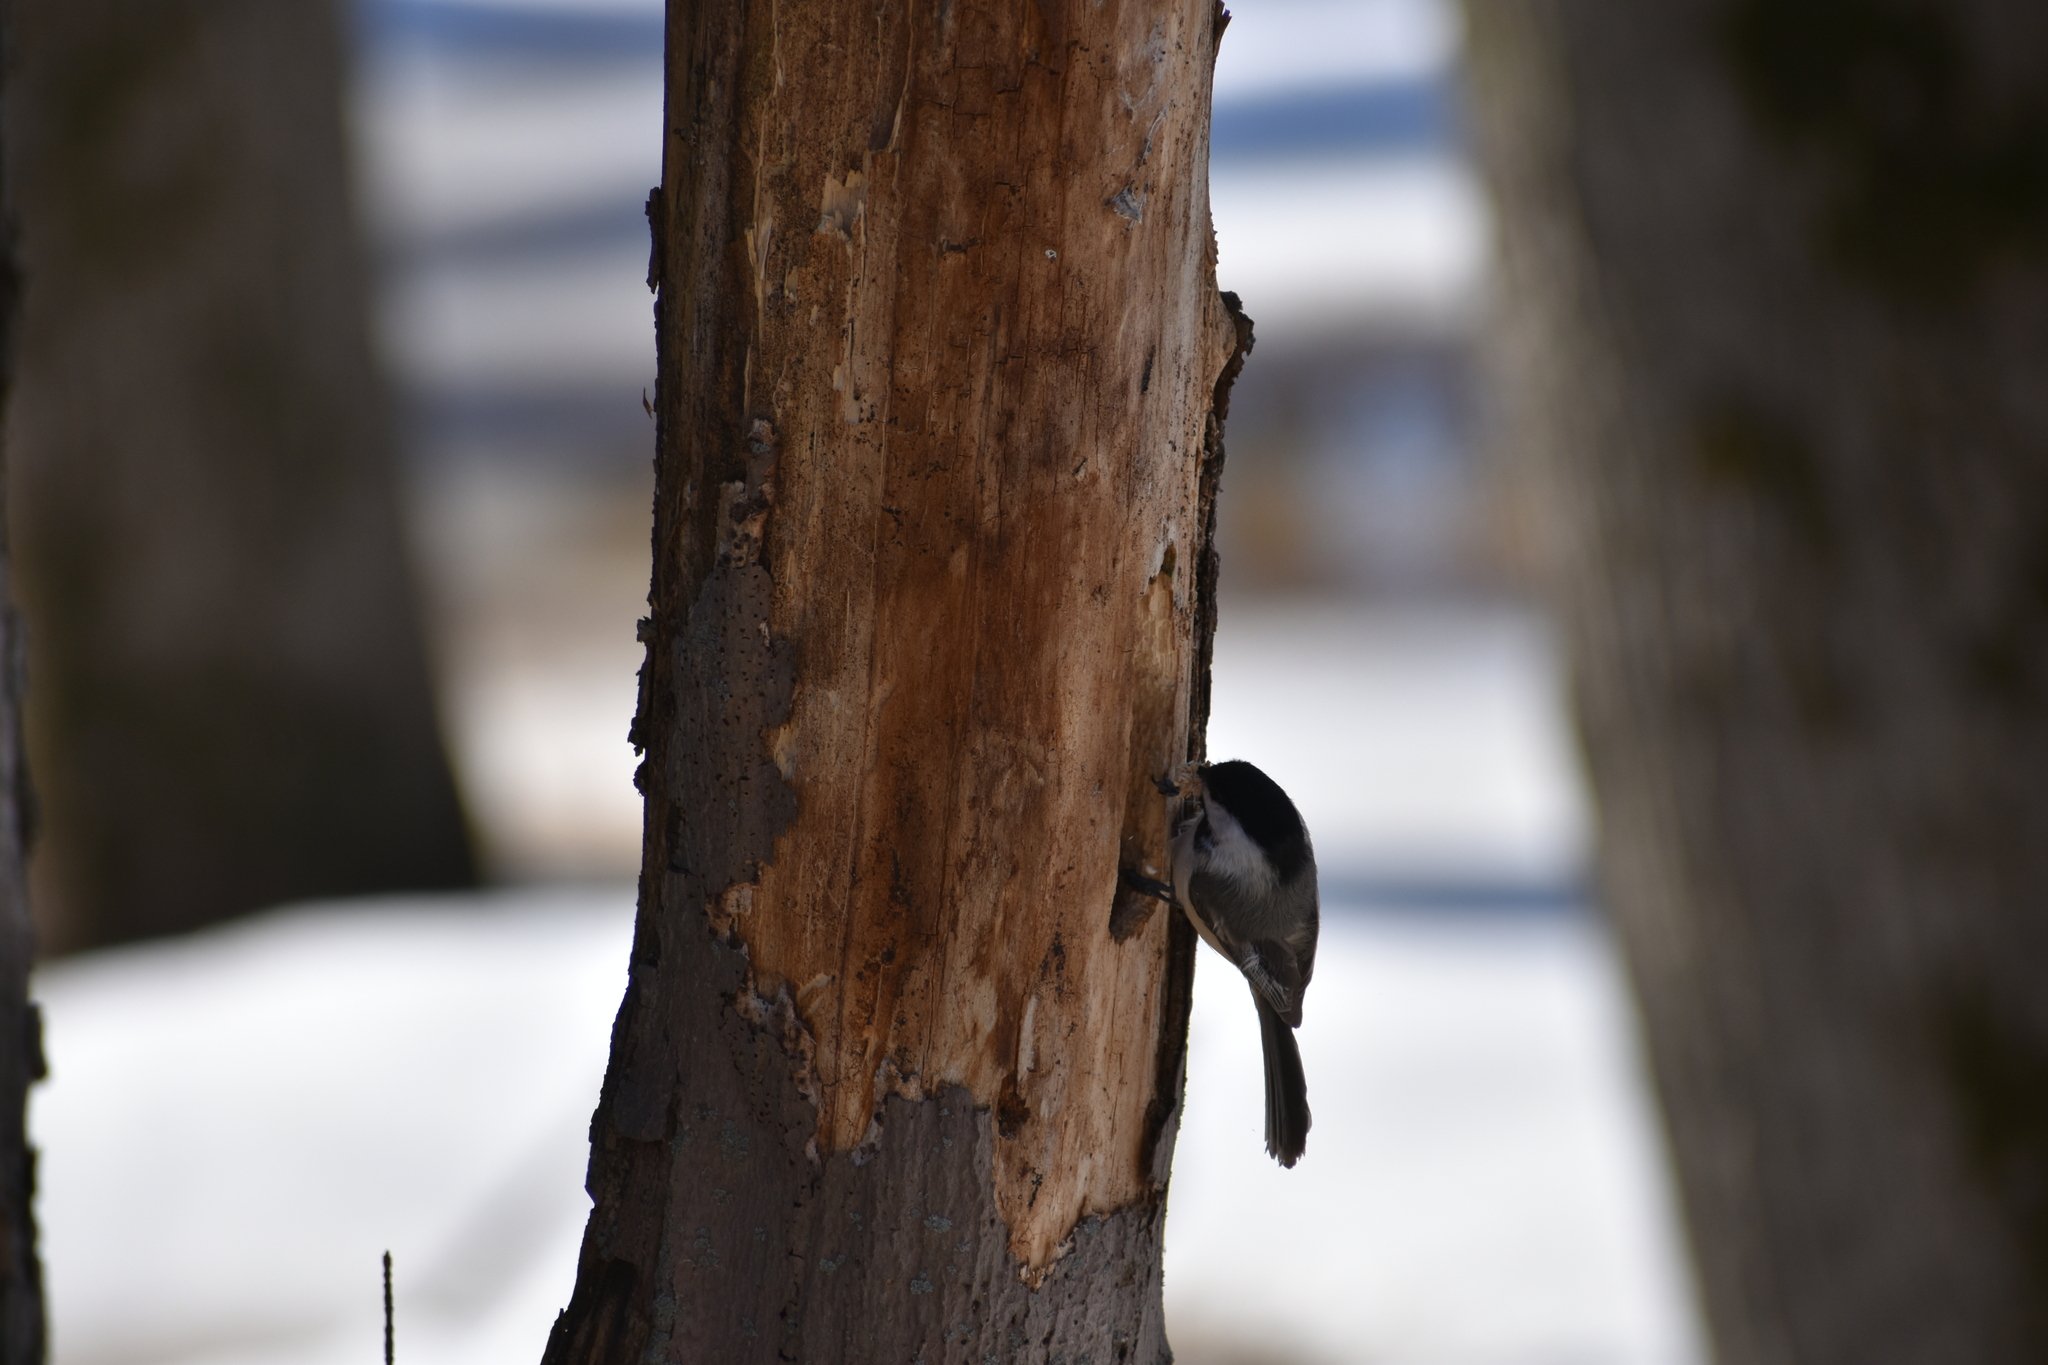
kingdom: Animalia
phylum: Chordata
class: Aves
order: Passeriformes
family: Paridae
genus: Poecile
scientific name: Poecile atricapillus
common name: Black-capped chickadee
